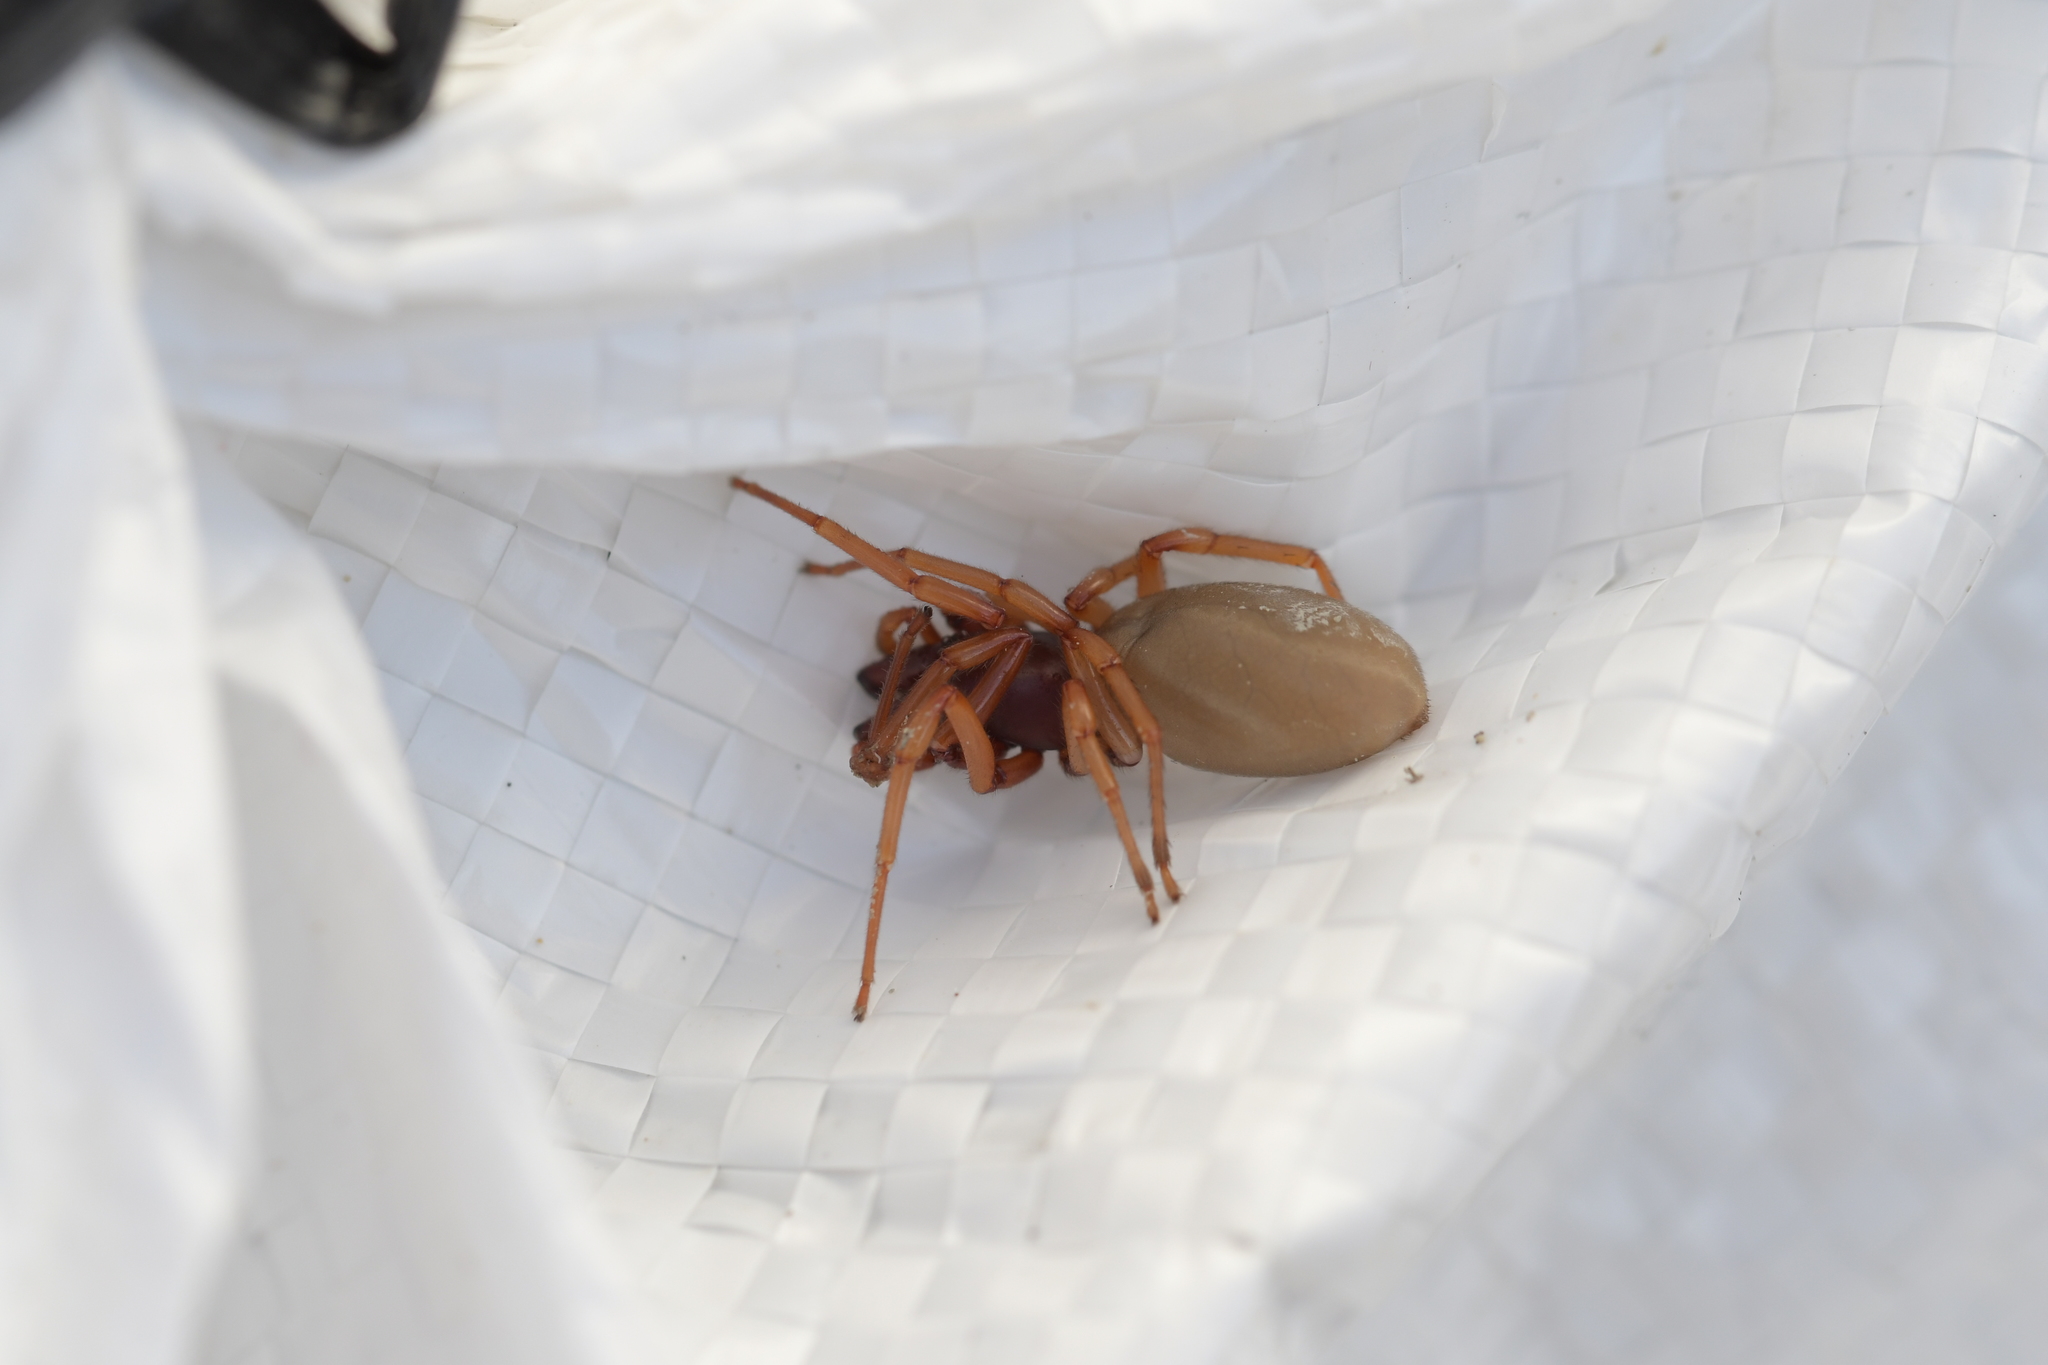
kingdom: Animalia
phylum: Arthropoda
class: Arachnida
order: Araneae
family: Dysderidae
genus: Dysdera
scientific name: Dysdera crocata
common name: Woodlouse spider
